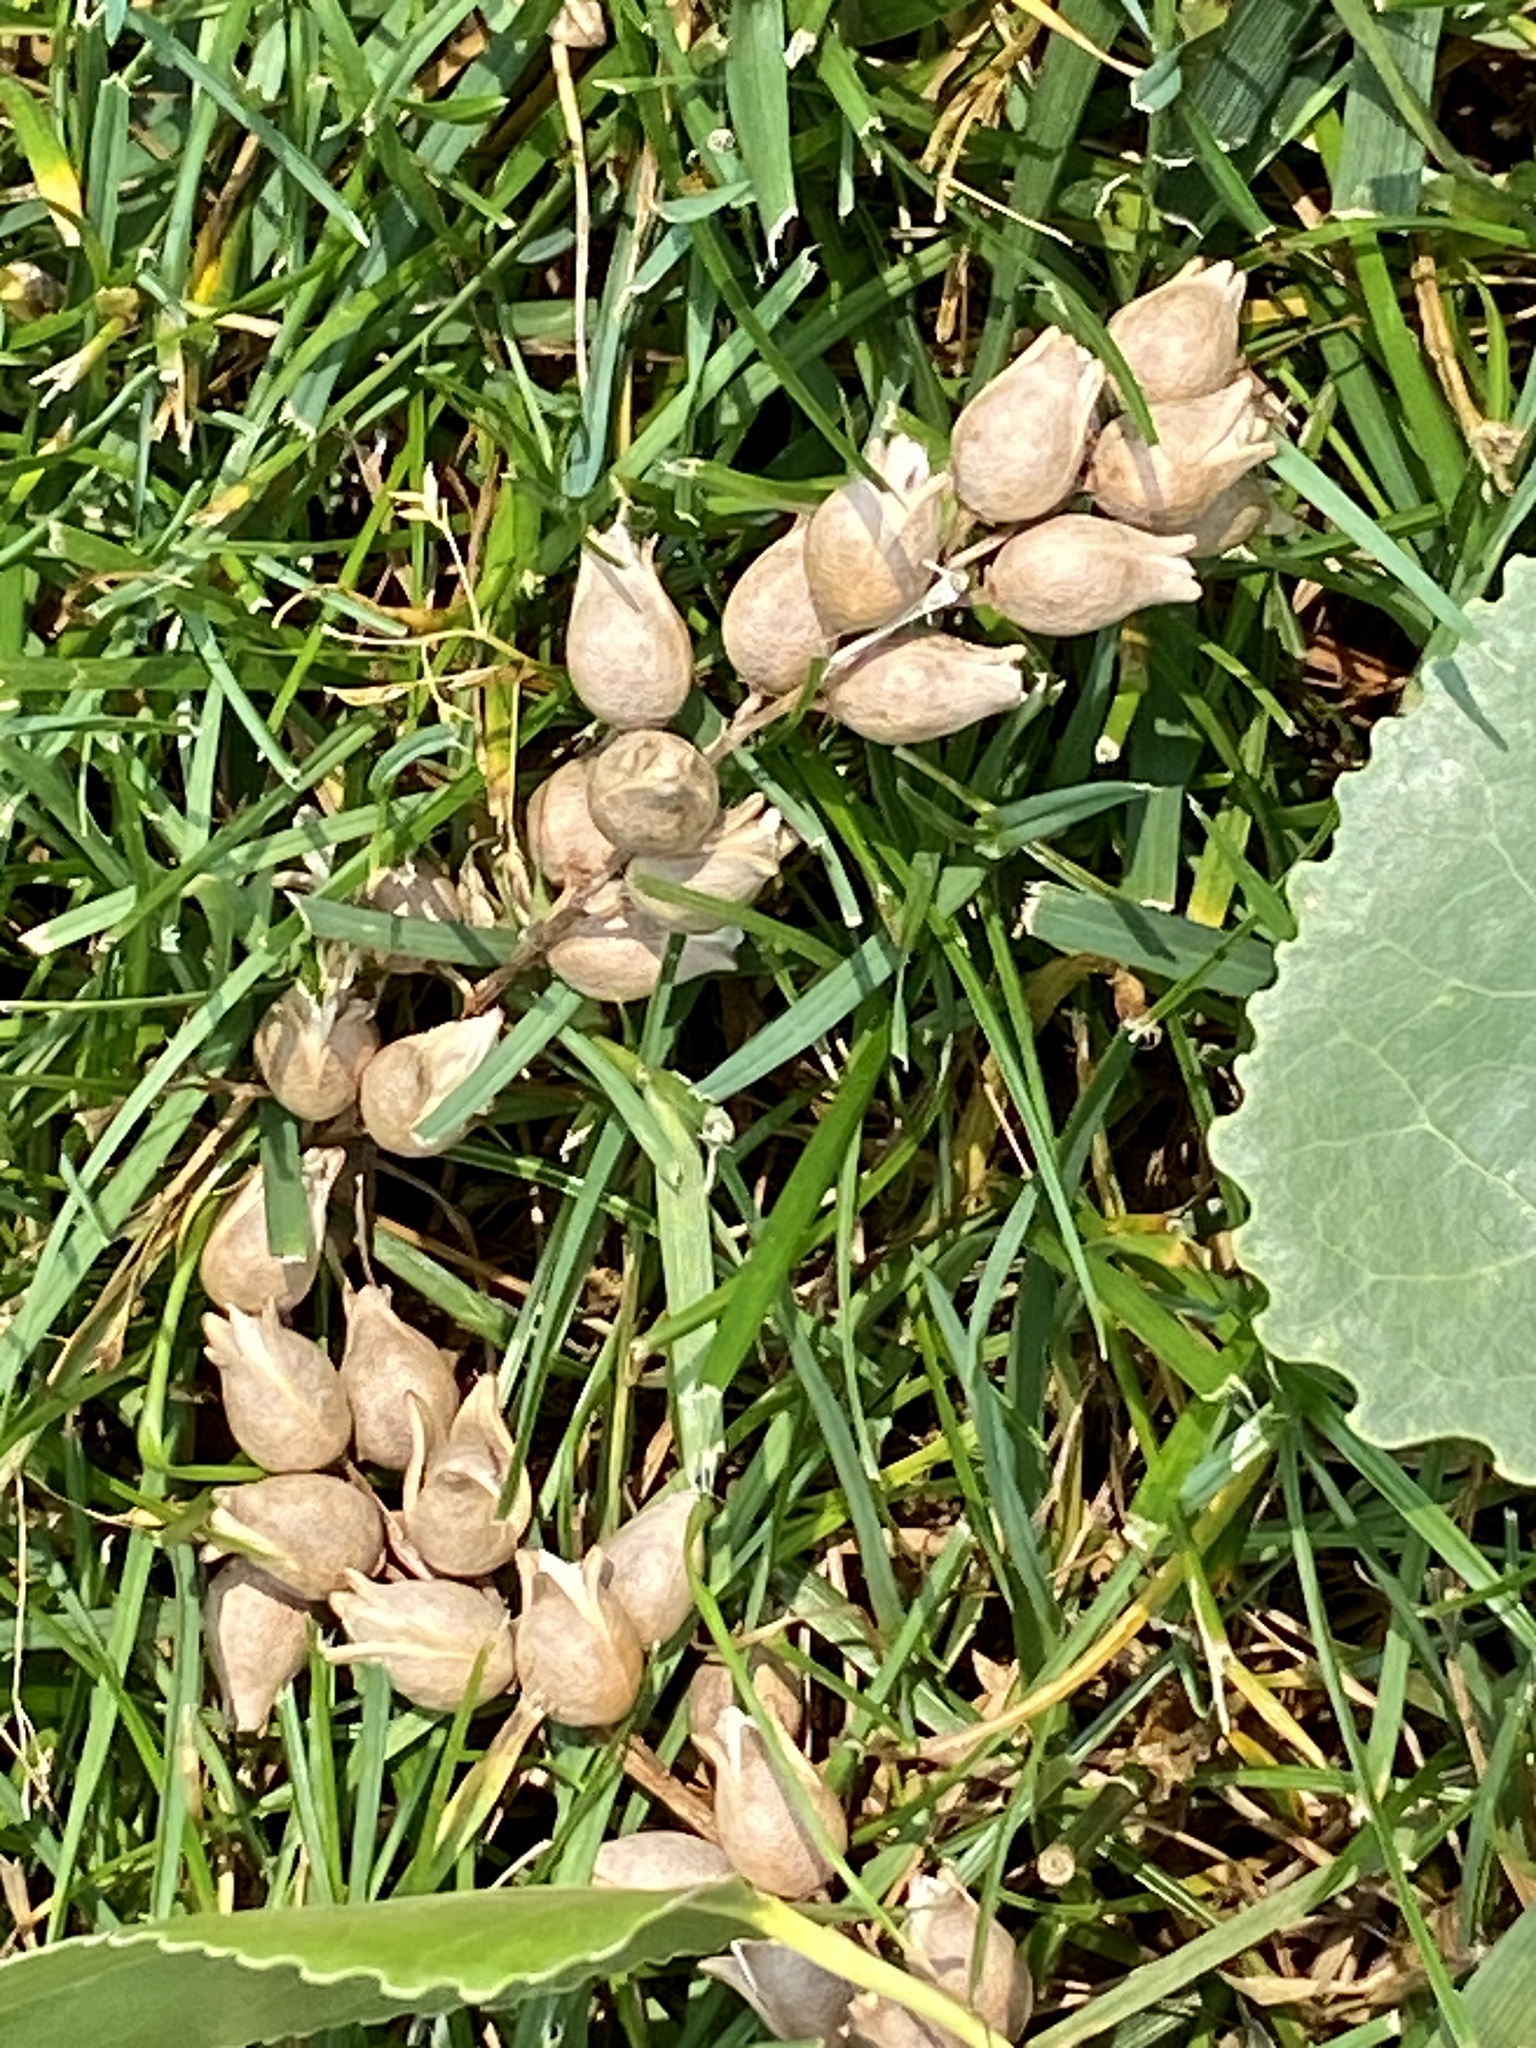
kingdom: Plantae
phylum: Tracheophyta
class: Magnoliopsida
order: Malpighiales
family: Salicaceae
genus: Populus
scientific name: Populus deltoides
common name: Eastern cottonwood
